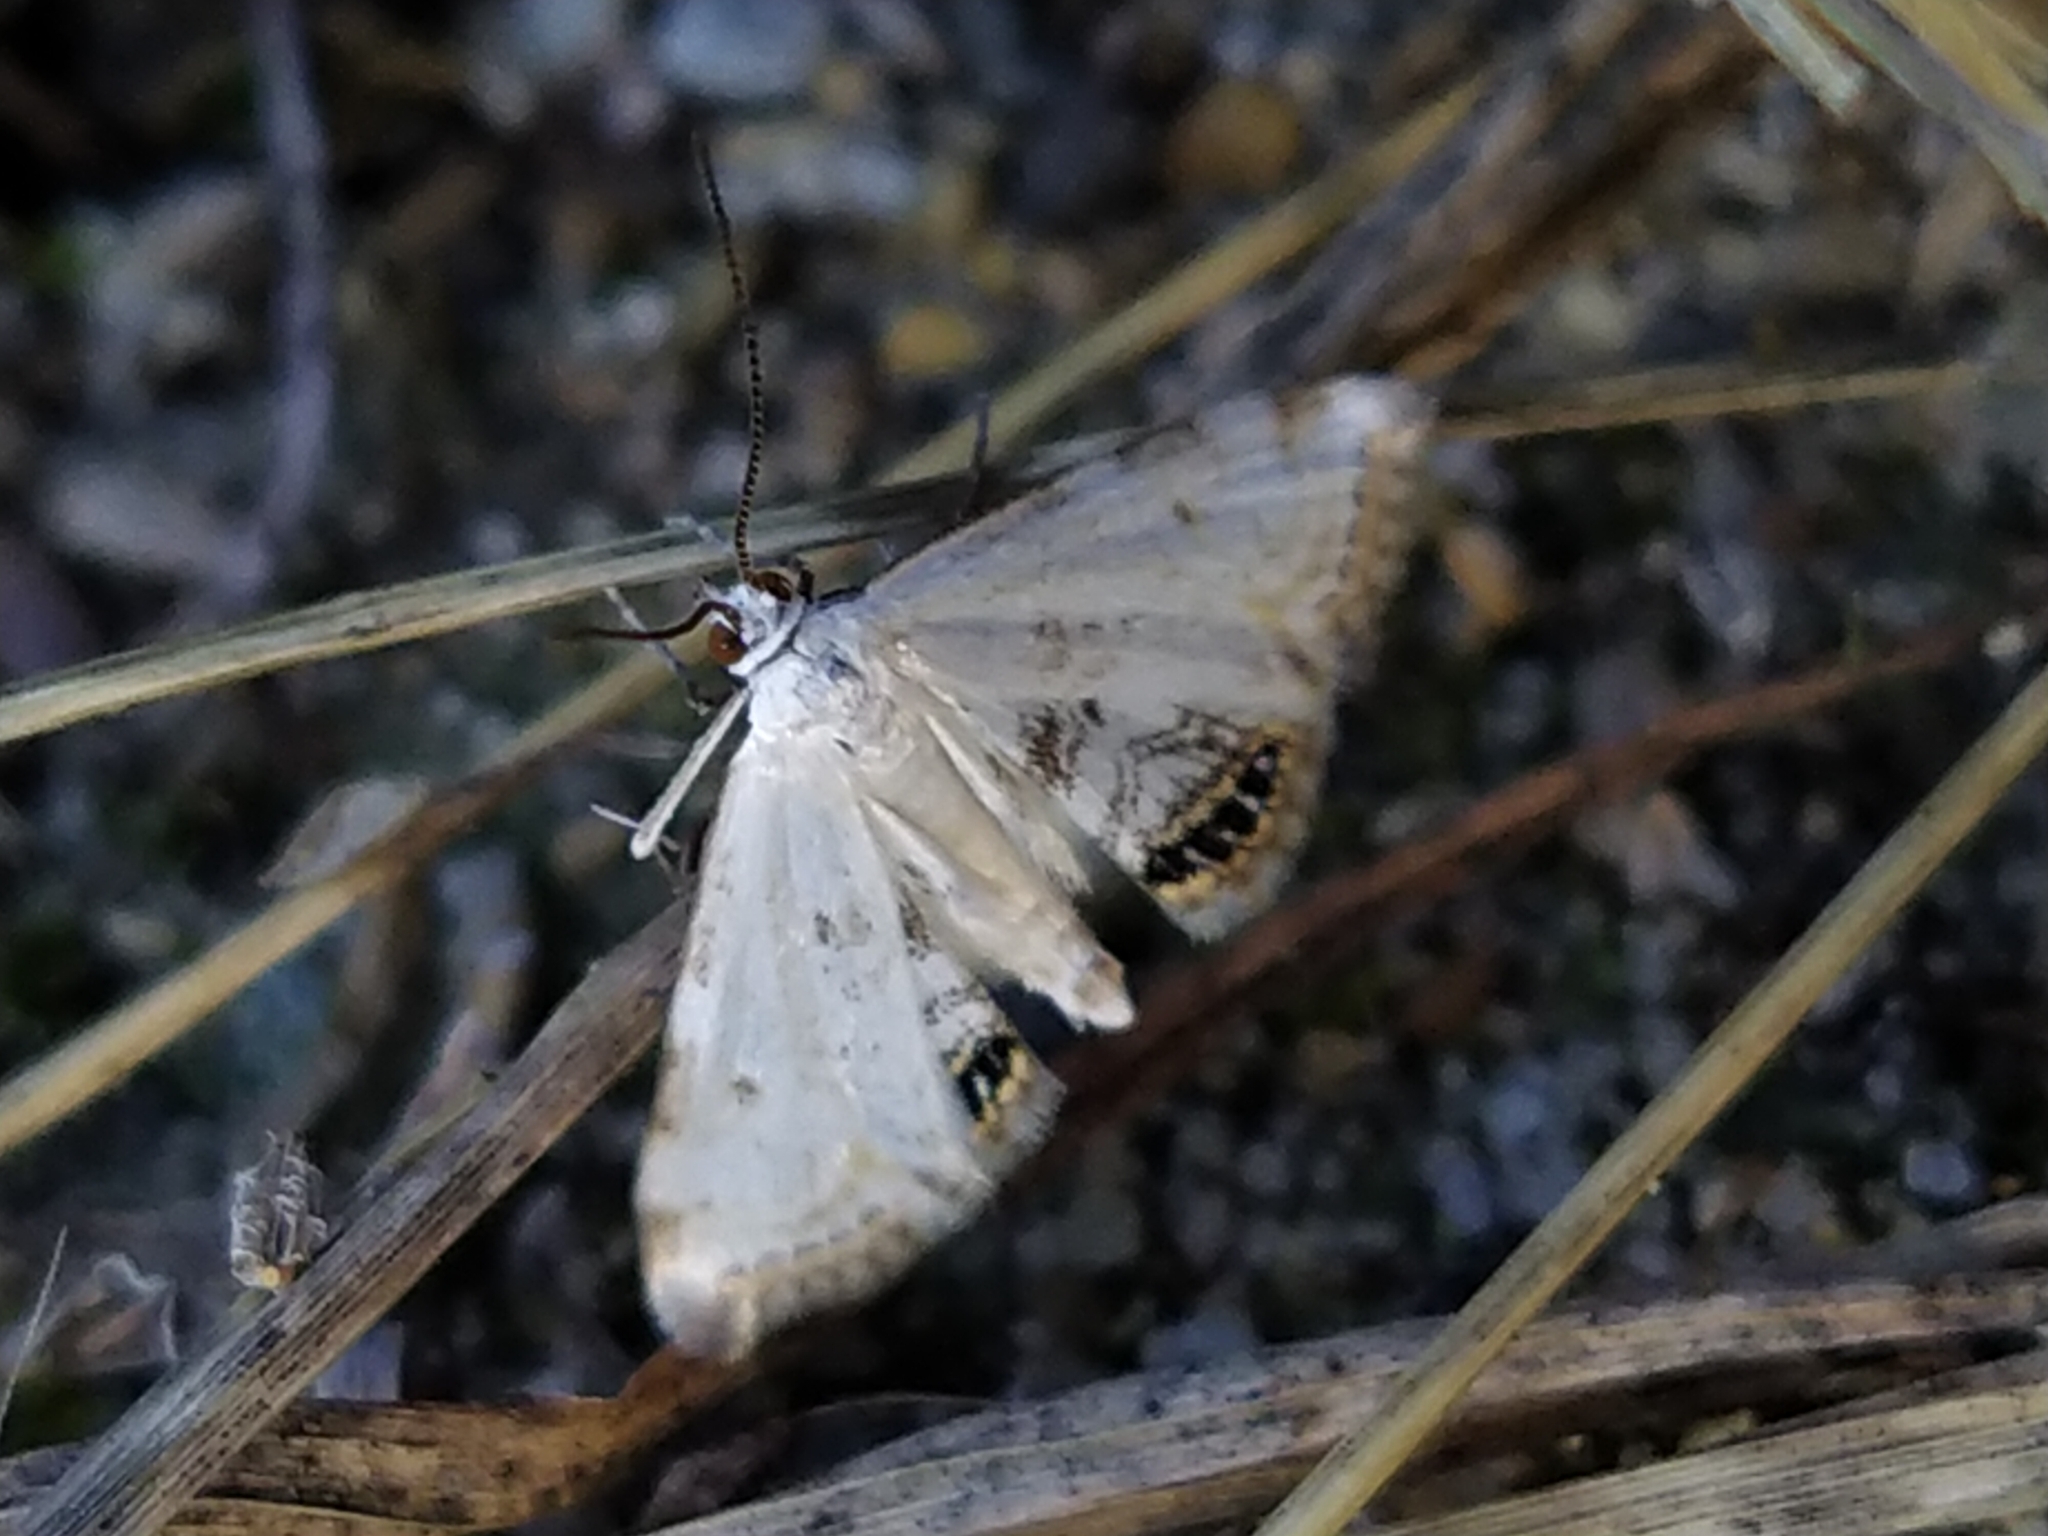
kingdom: Animalia
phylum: Arthropoda
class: Insecta
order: Lepidoptera
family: Crambidae
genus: Cataclysta
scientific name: Cataclysta lemnata
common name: Small china-mark
